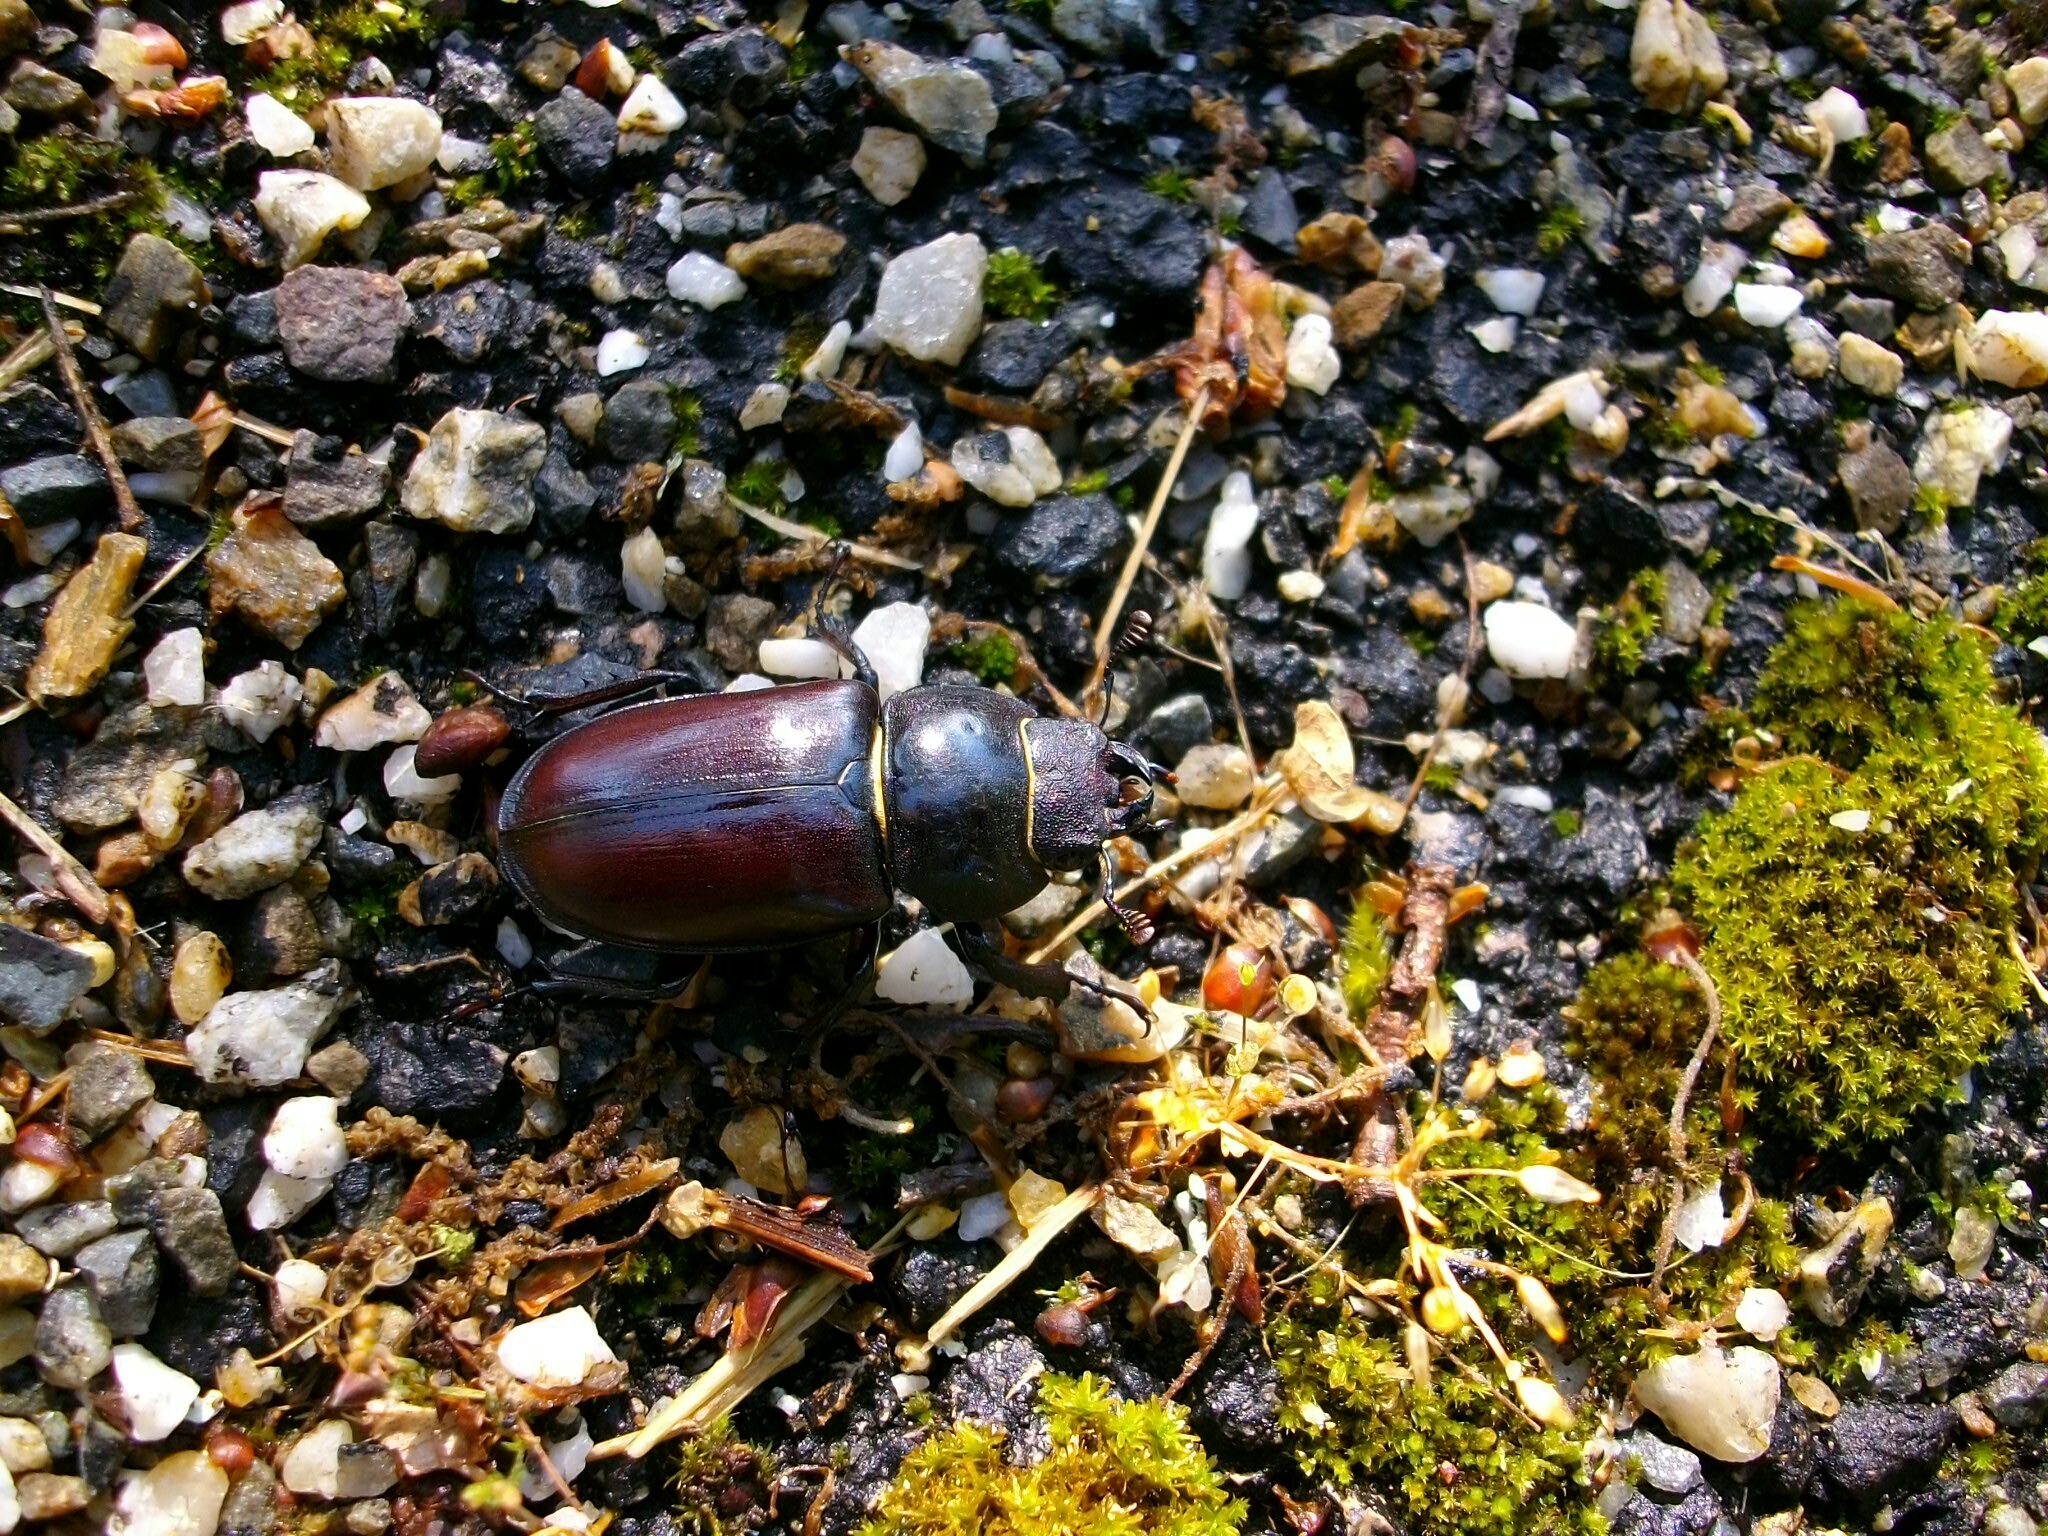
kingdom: Animalia
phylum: Arthropoda
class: Insecta
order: Coleoptera
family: Lucanidae
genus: Lucanus
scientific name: Lucanus cervus
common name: Stag beetle
